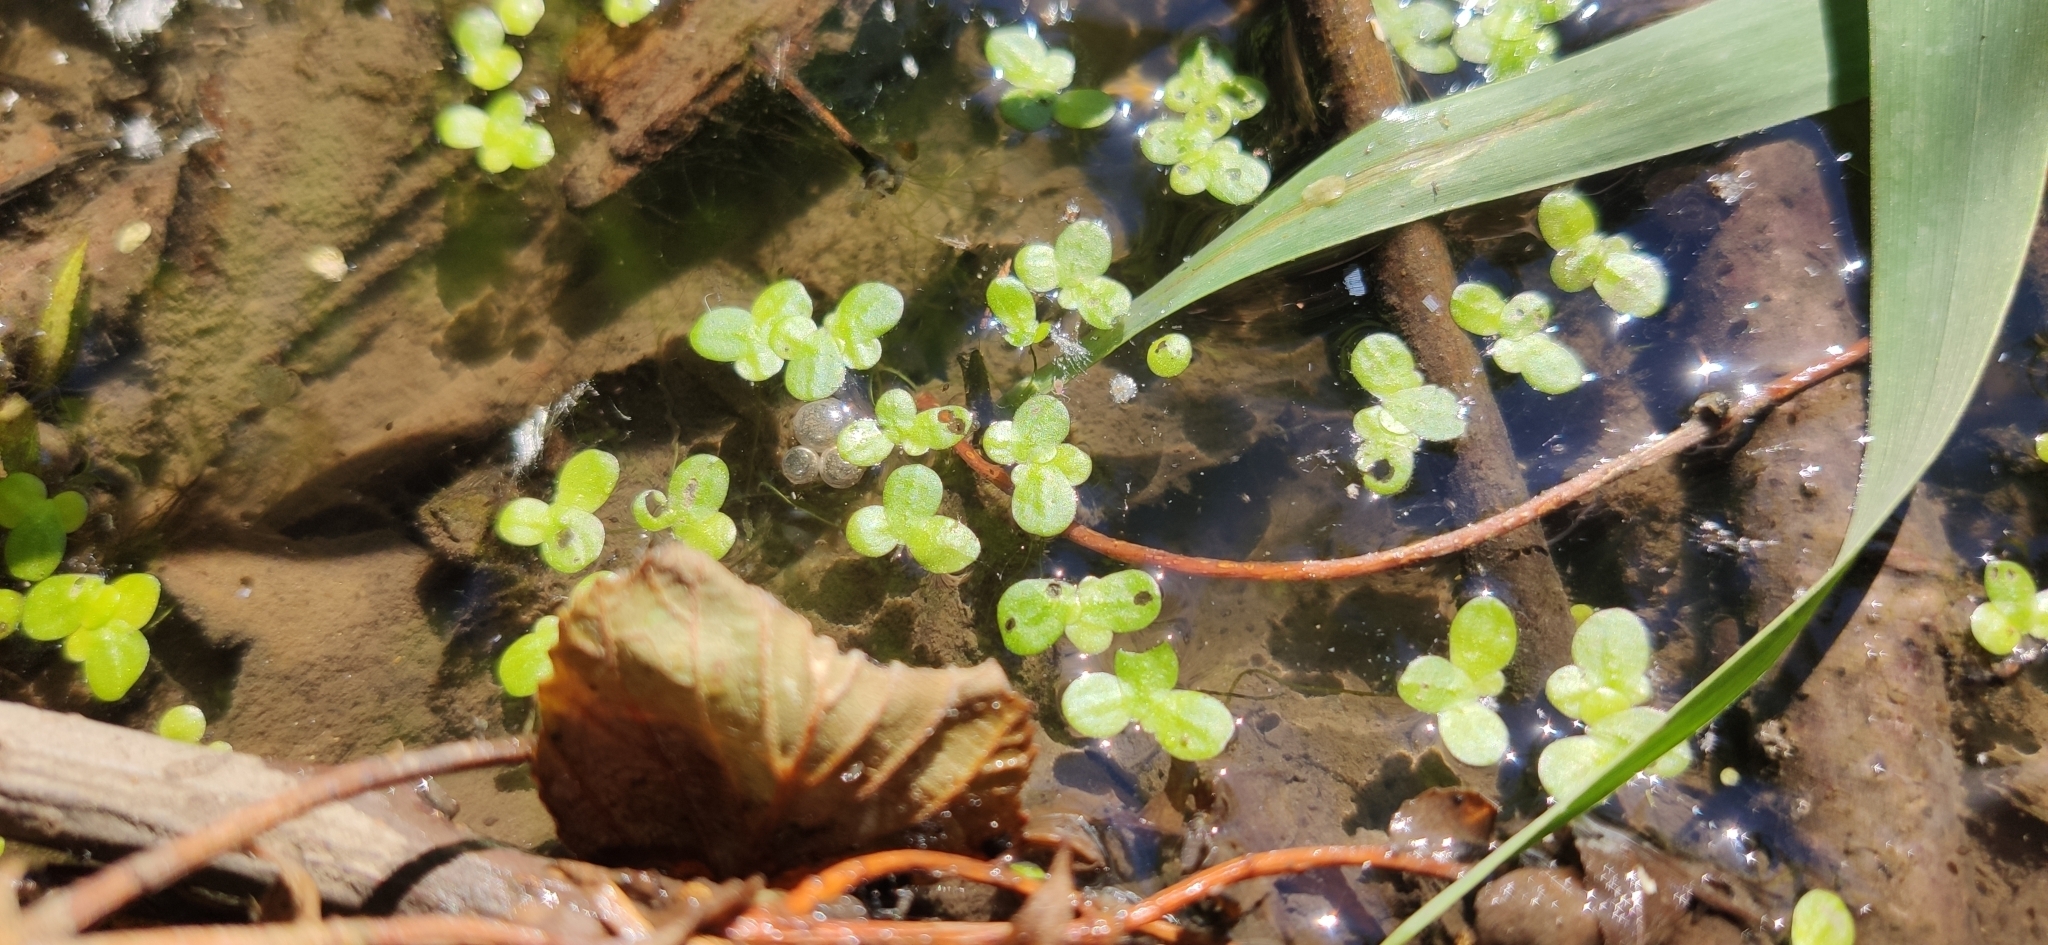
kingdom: Plantae
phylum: Tracheophyta
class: Liliopsida
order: Alismatales
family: Araceae
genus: Lemna
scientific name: Lemna minor
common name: Common duckweed
